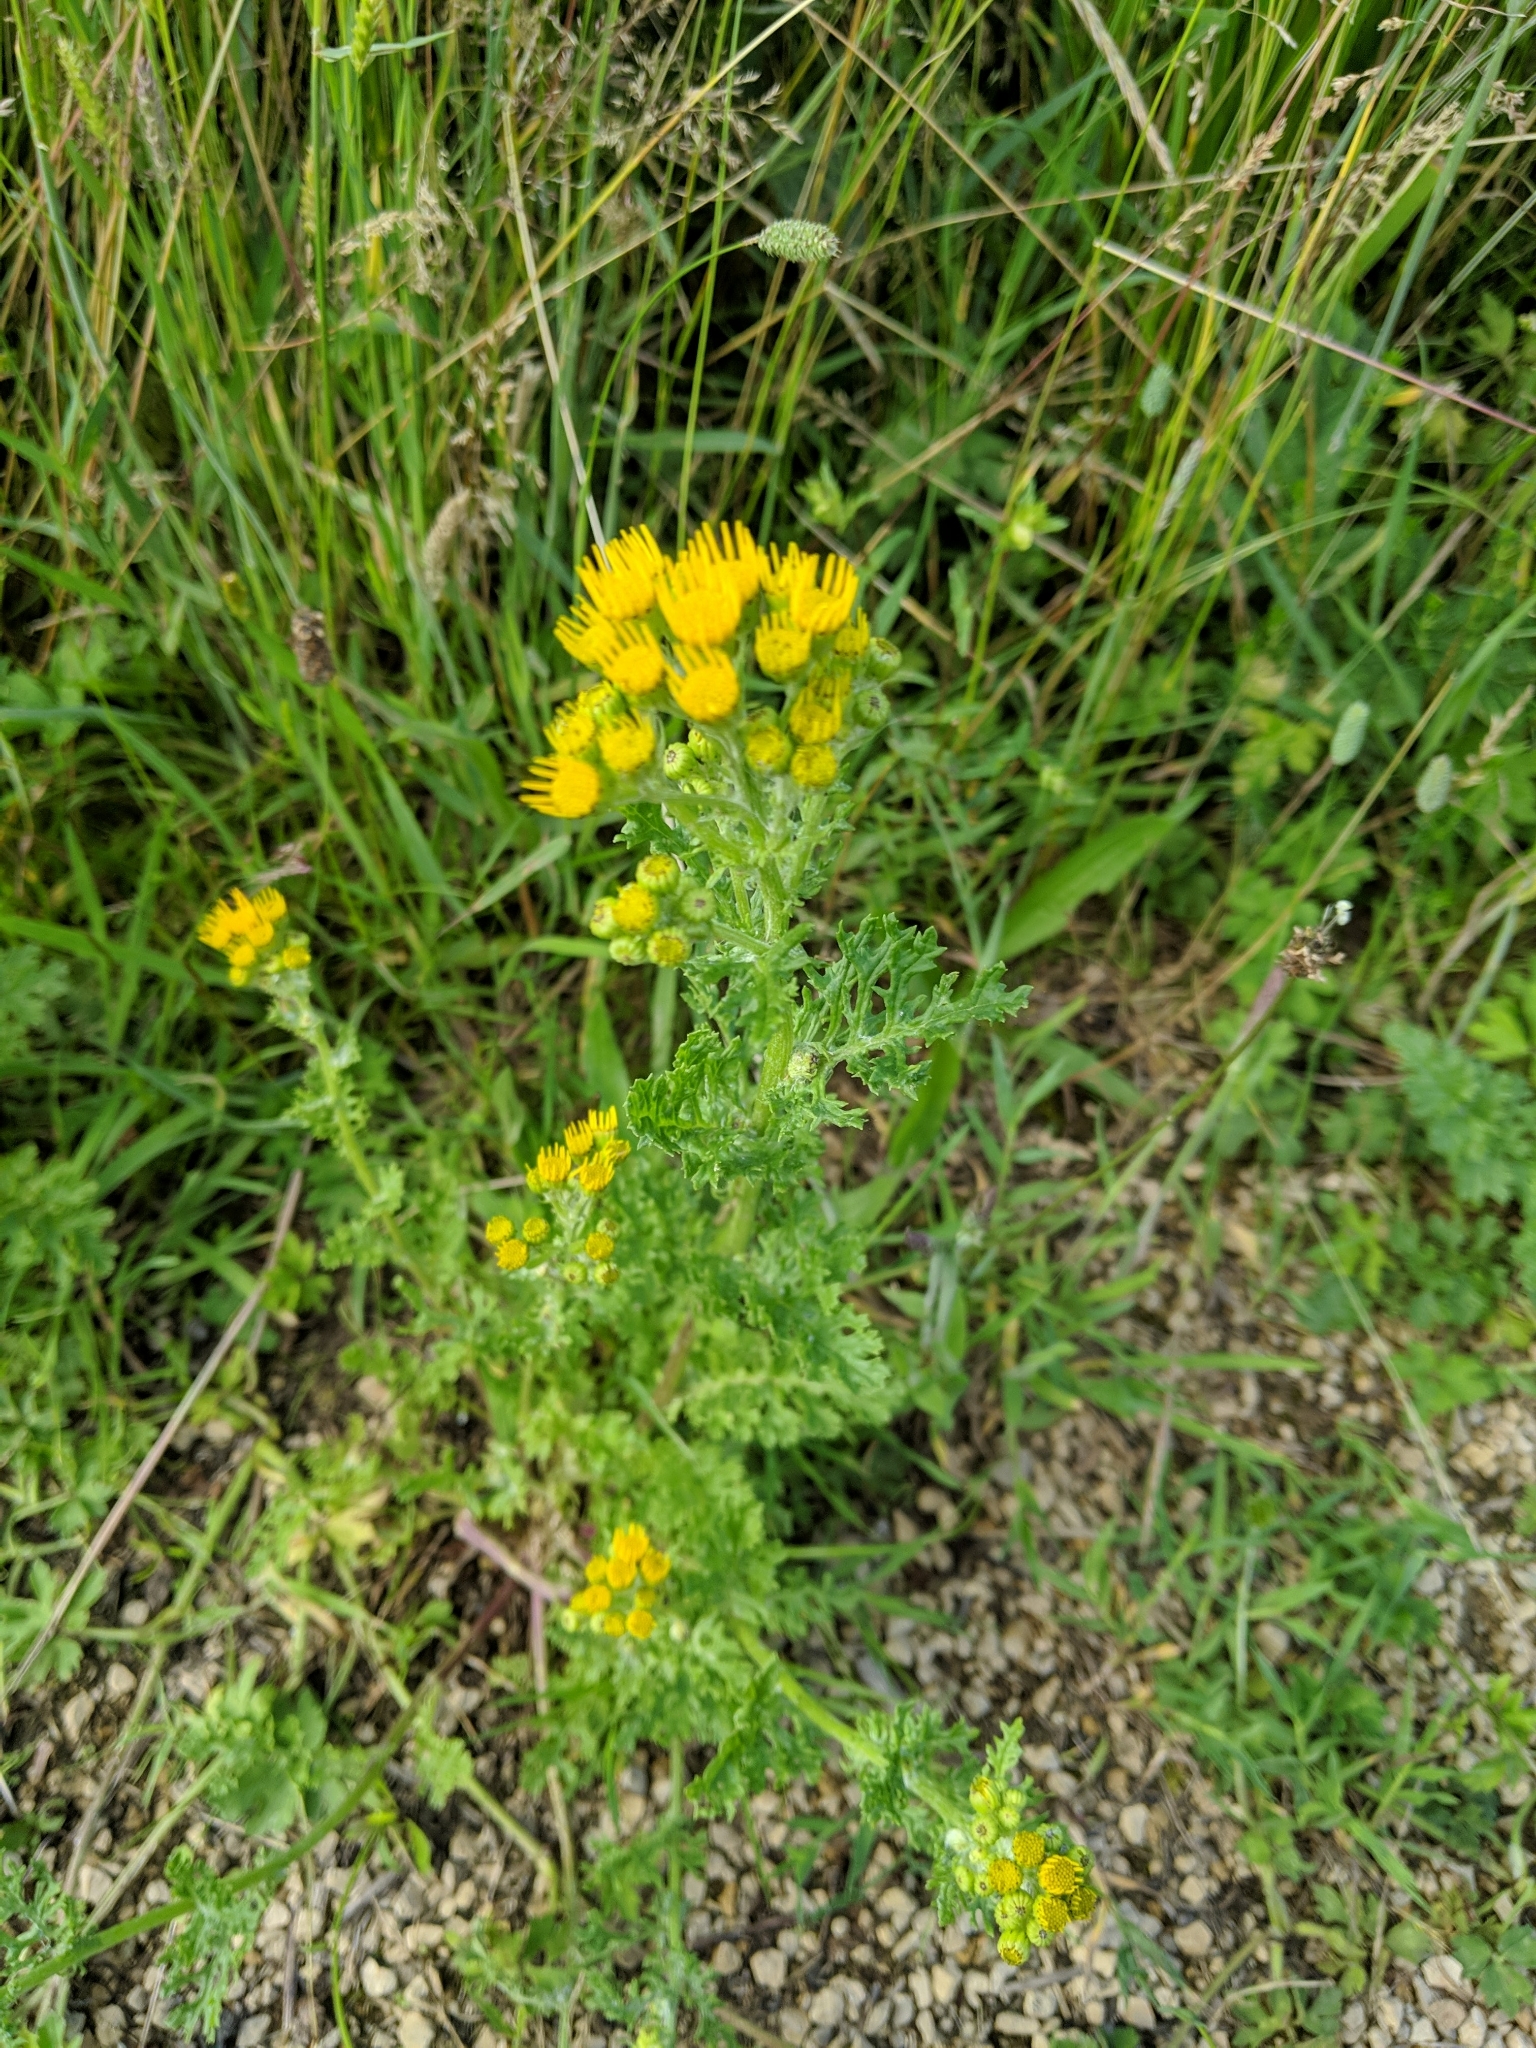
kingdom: Plantae
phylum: Tracheophyta
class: Magnoliopsida
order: Asterales
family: Asteraceae
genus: Jacobaea
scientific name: Jacobaea vulgaris
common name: Stinking willie
